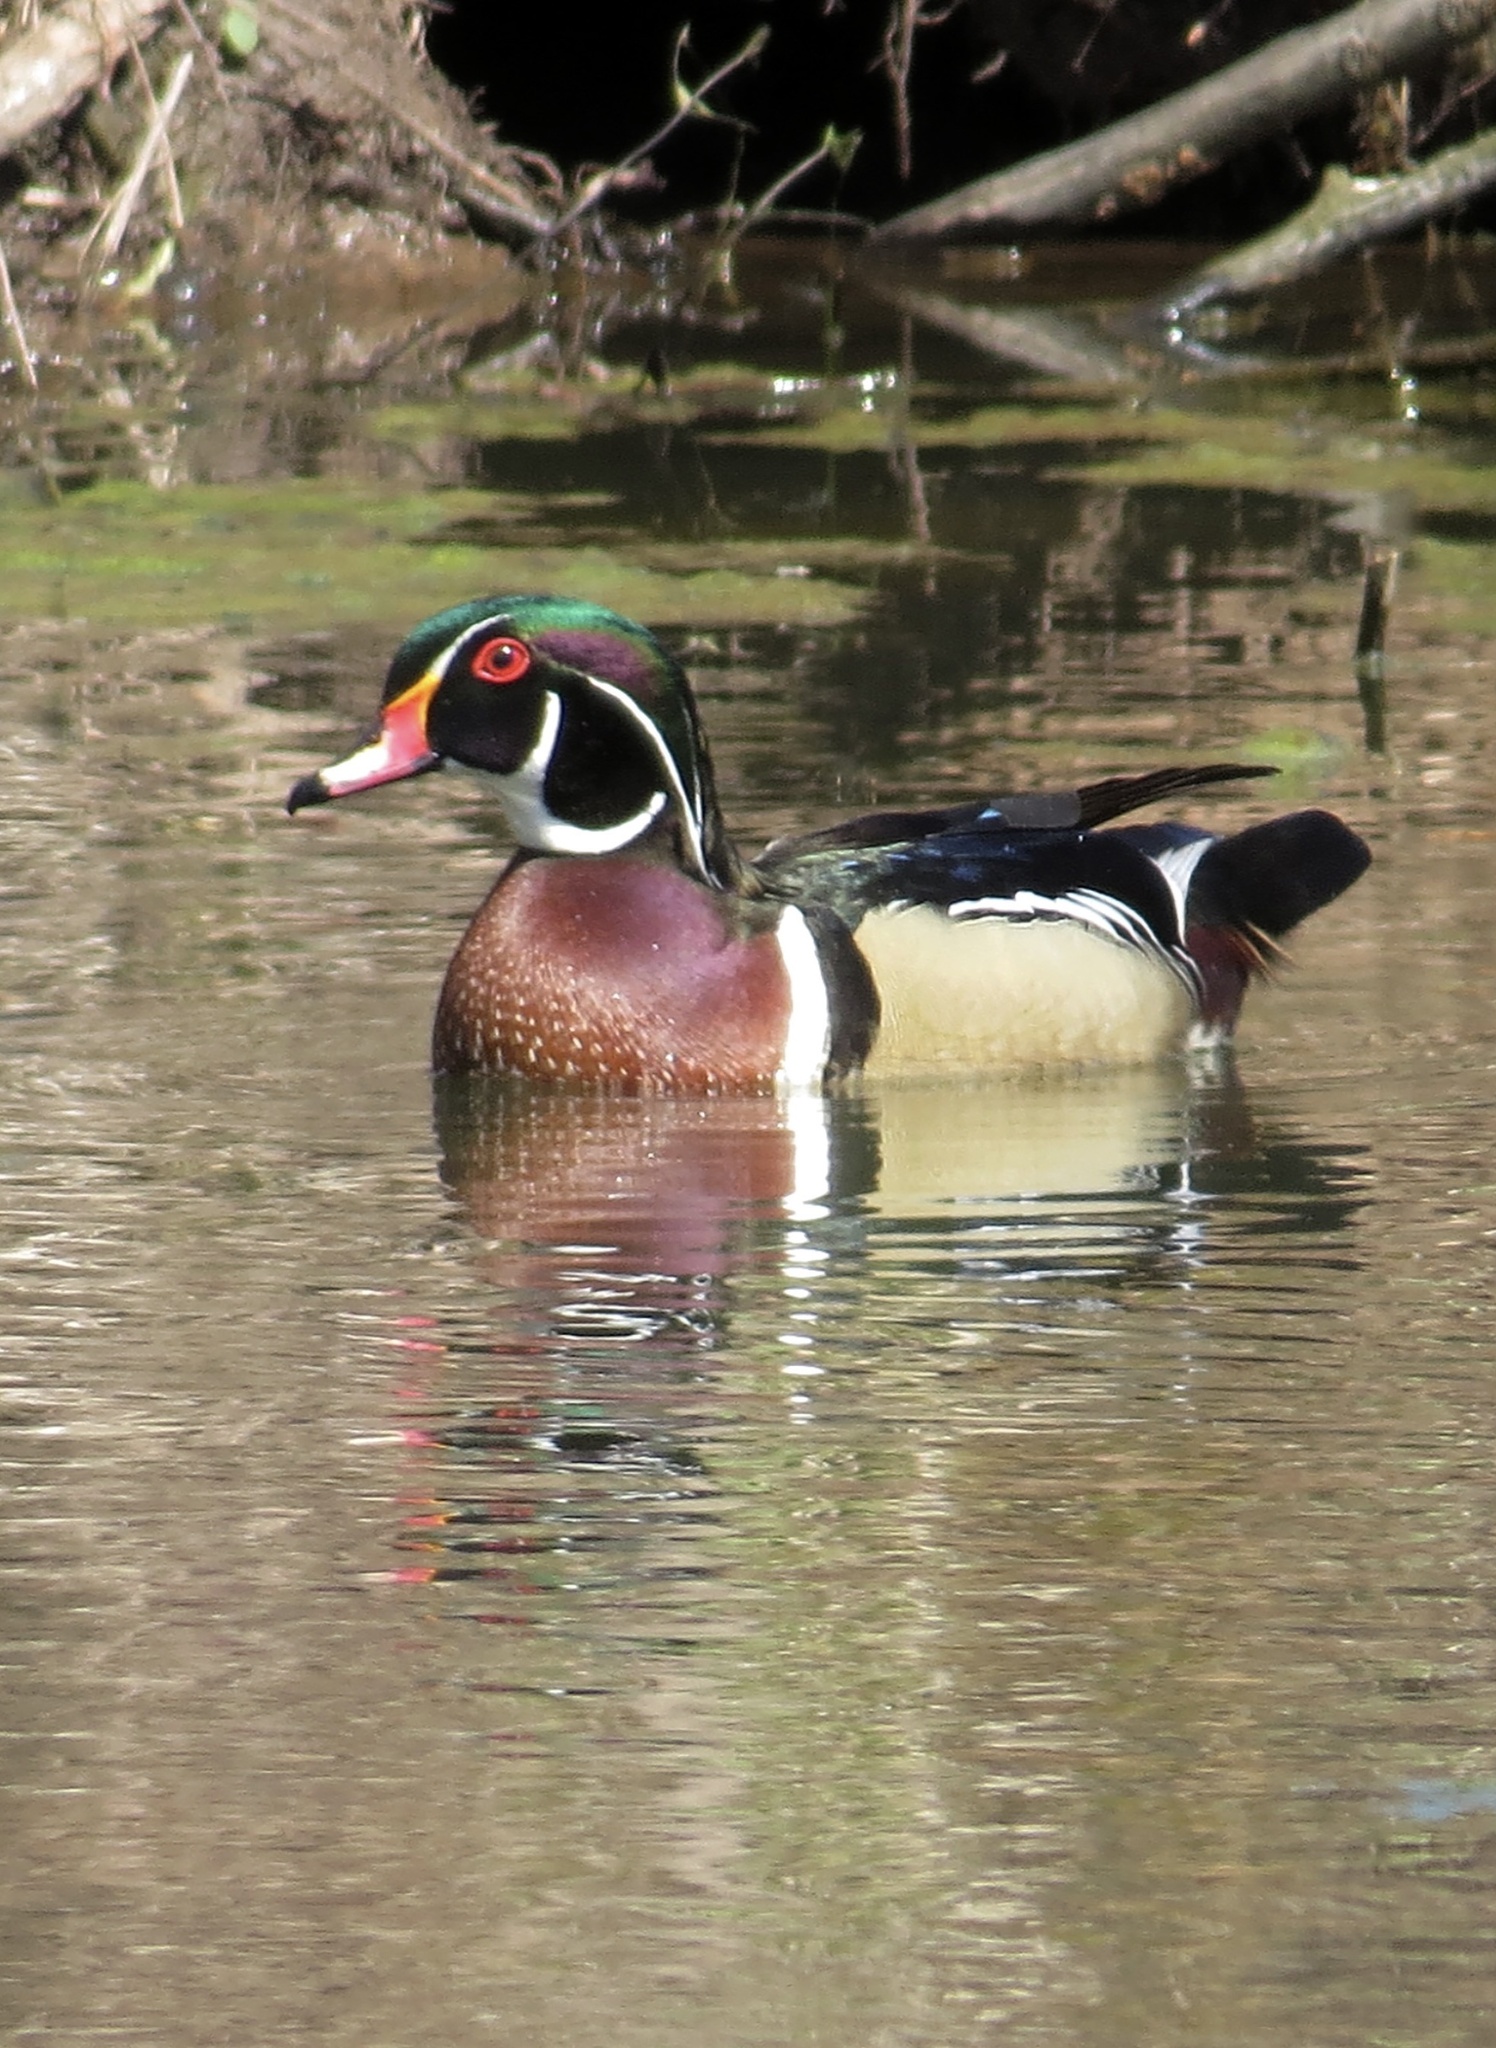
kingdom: Animalia
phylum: Chordata
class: Aves
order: Anseriformes
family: Anatidae
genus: Aix
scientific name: Aix sponsa
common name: Wood duck
